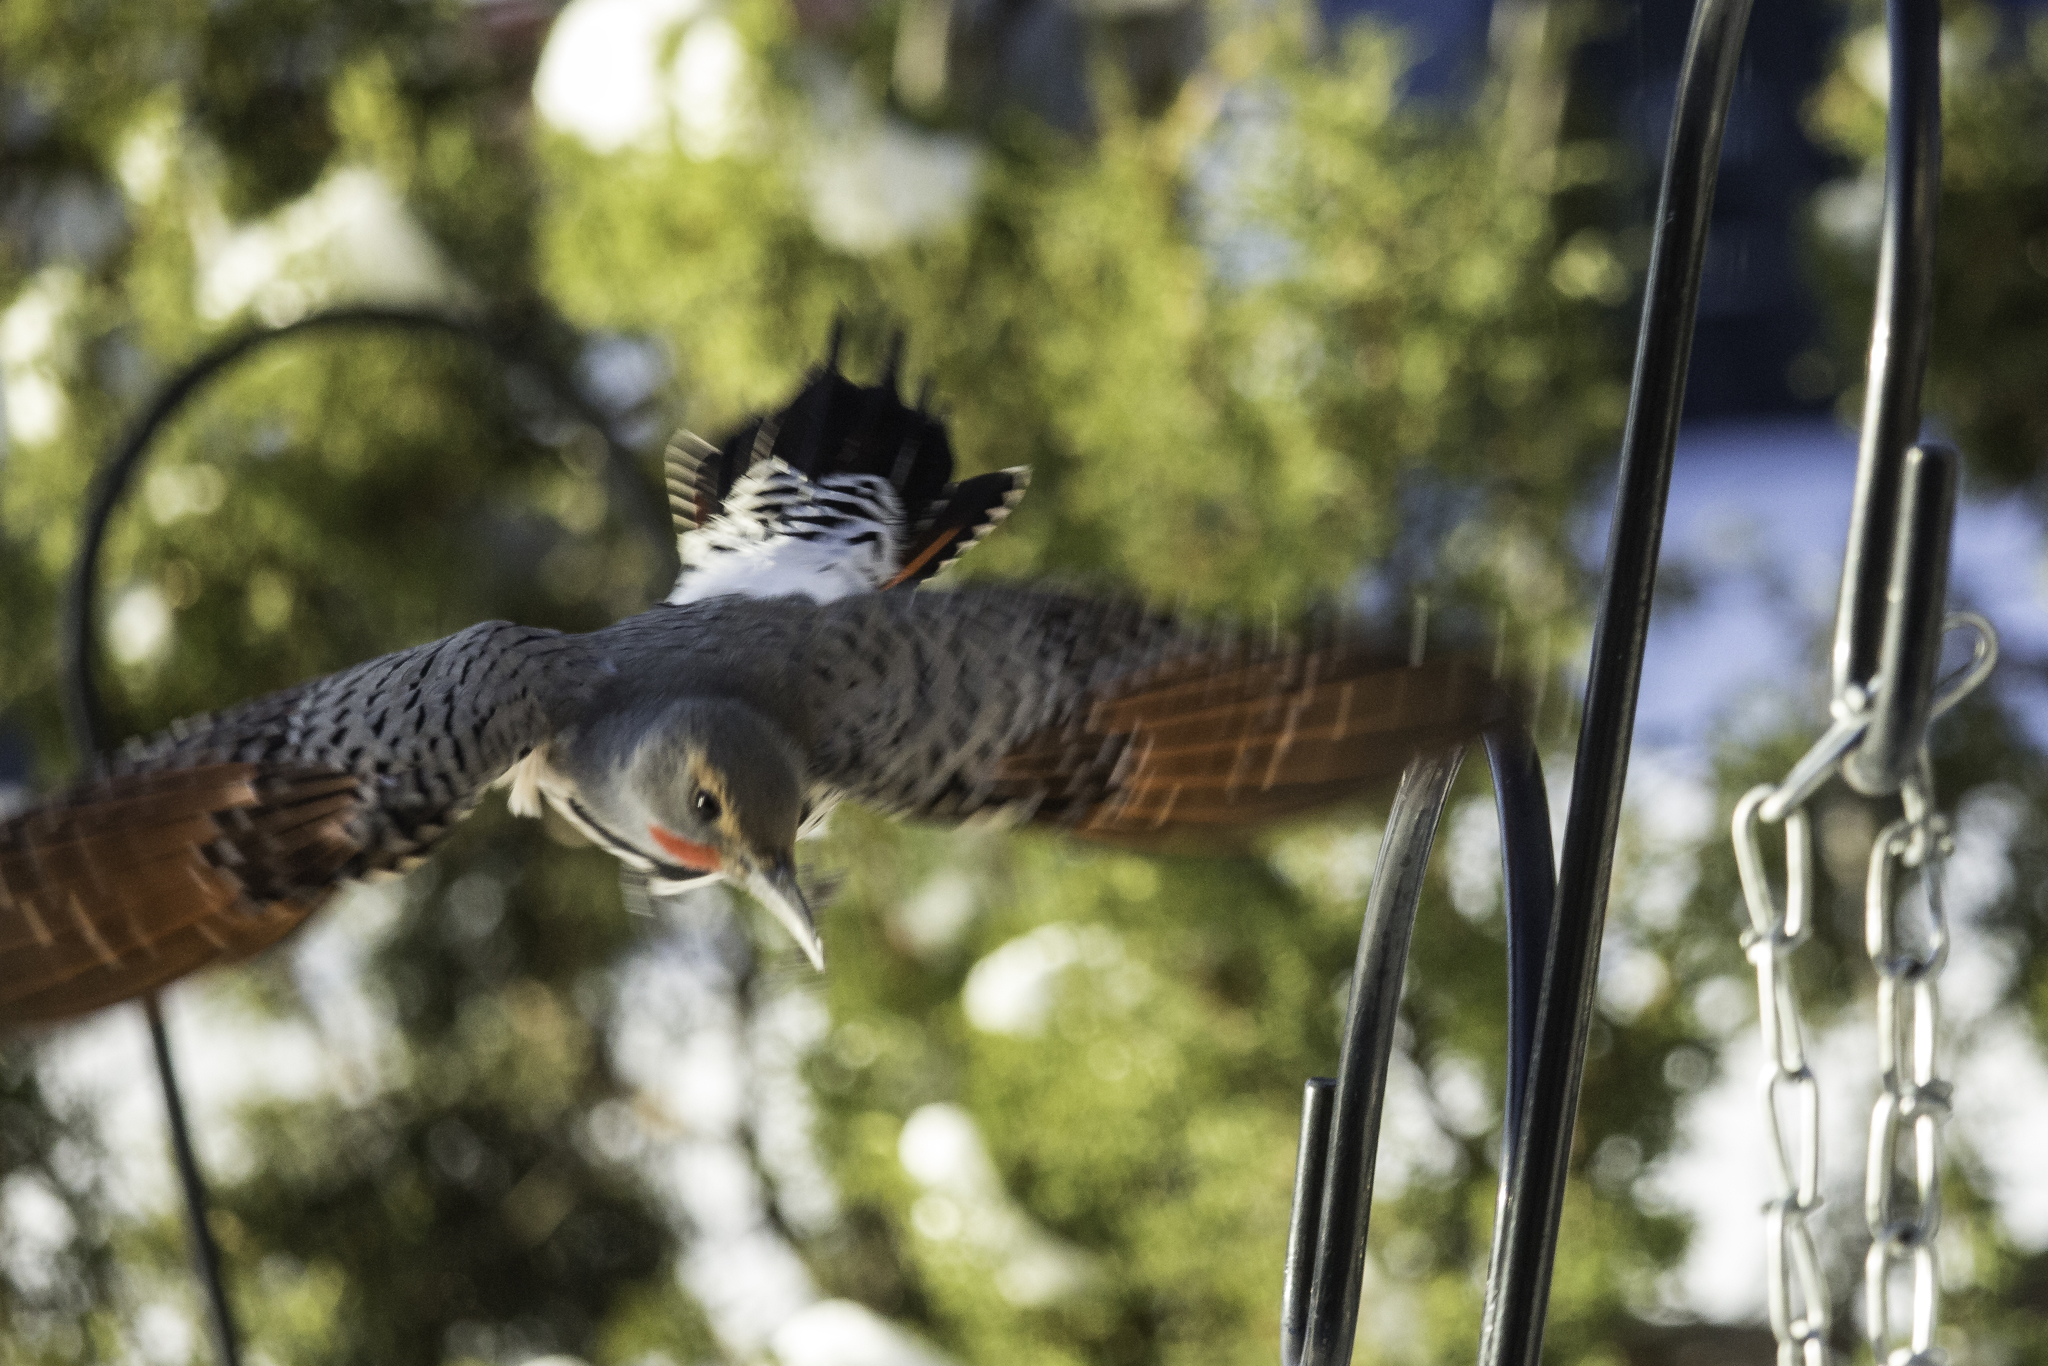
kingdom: Animalia
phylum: Chordata
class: Aves
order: Piciformes
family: Picidae
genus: Colaptes
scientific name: Colaptes auratus
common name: Northern flicker
